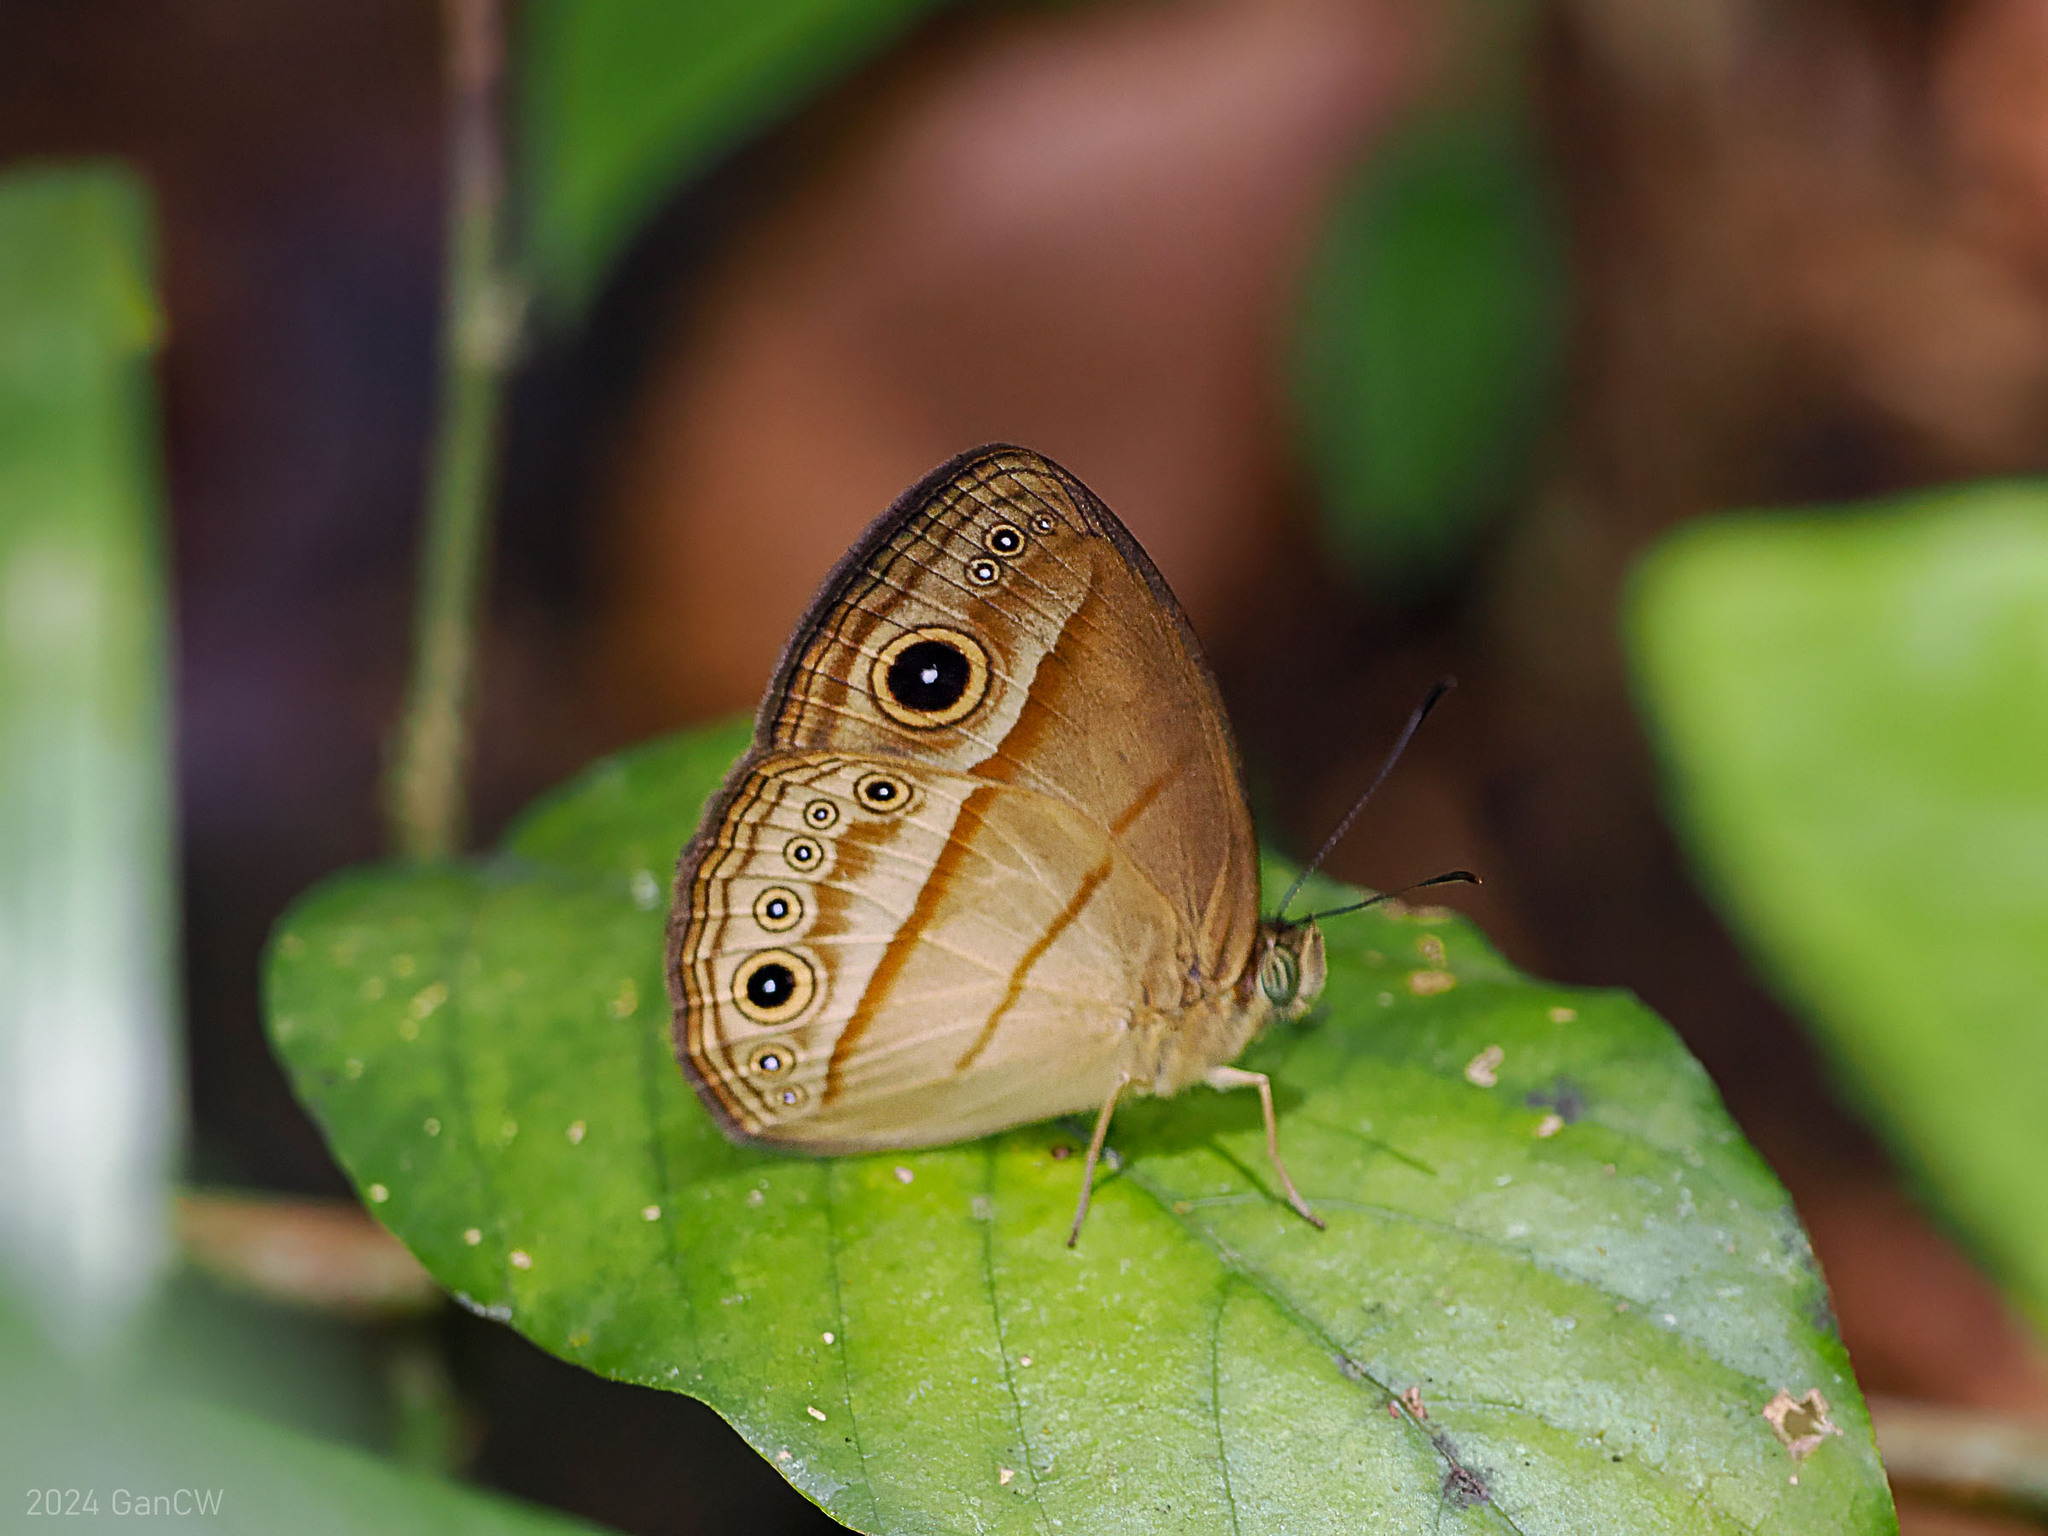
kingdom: Animalia
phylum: Arthropoda
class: Insecta
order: Lepidoptera
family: Nymphalidae
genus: Mycalesis
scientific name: Mycalesis ita
